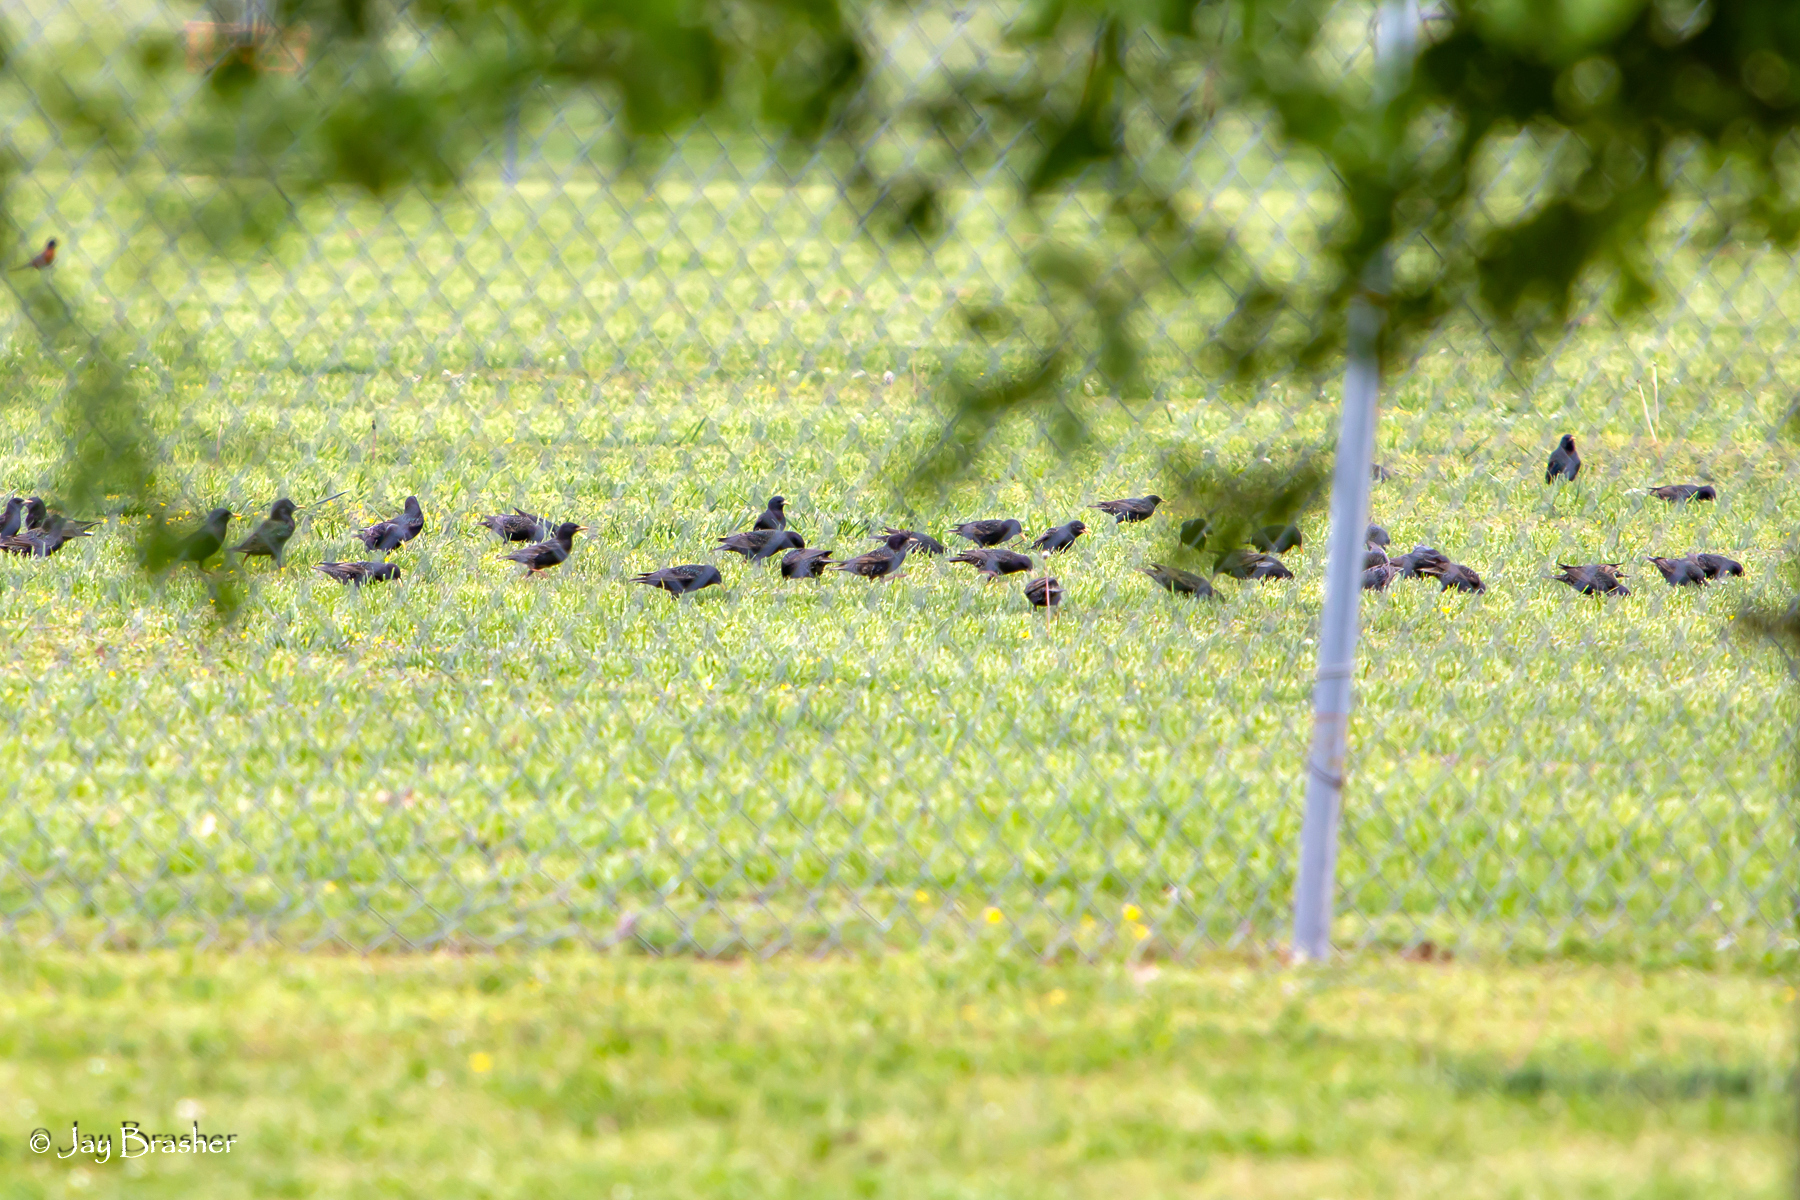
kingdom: Animalia
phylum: Chordata
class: Aves
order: Passeriformes
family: Sturnidae
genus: Sturnus
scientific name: Sturnus vulgaris
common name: Common starling
